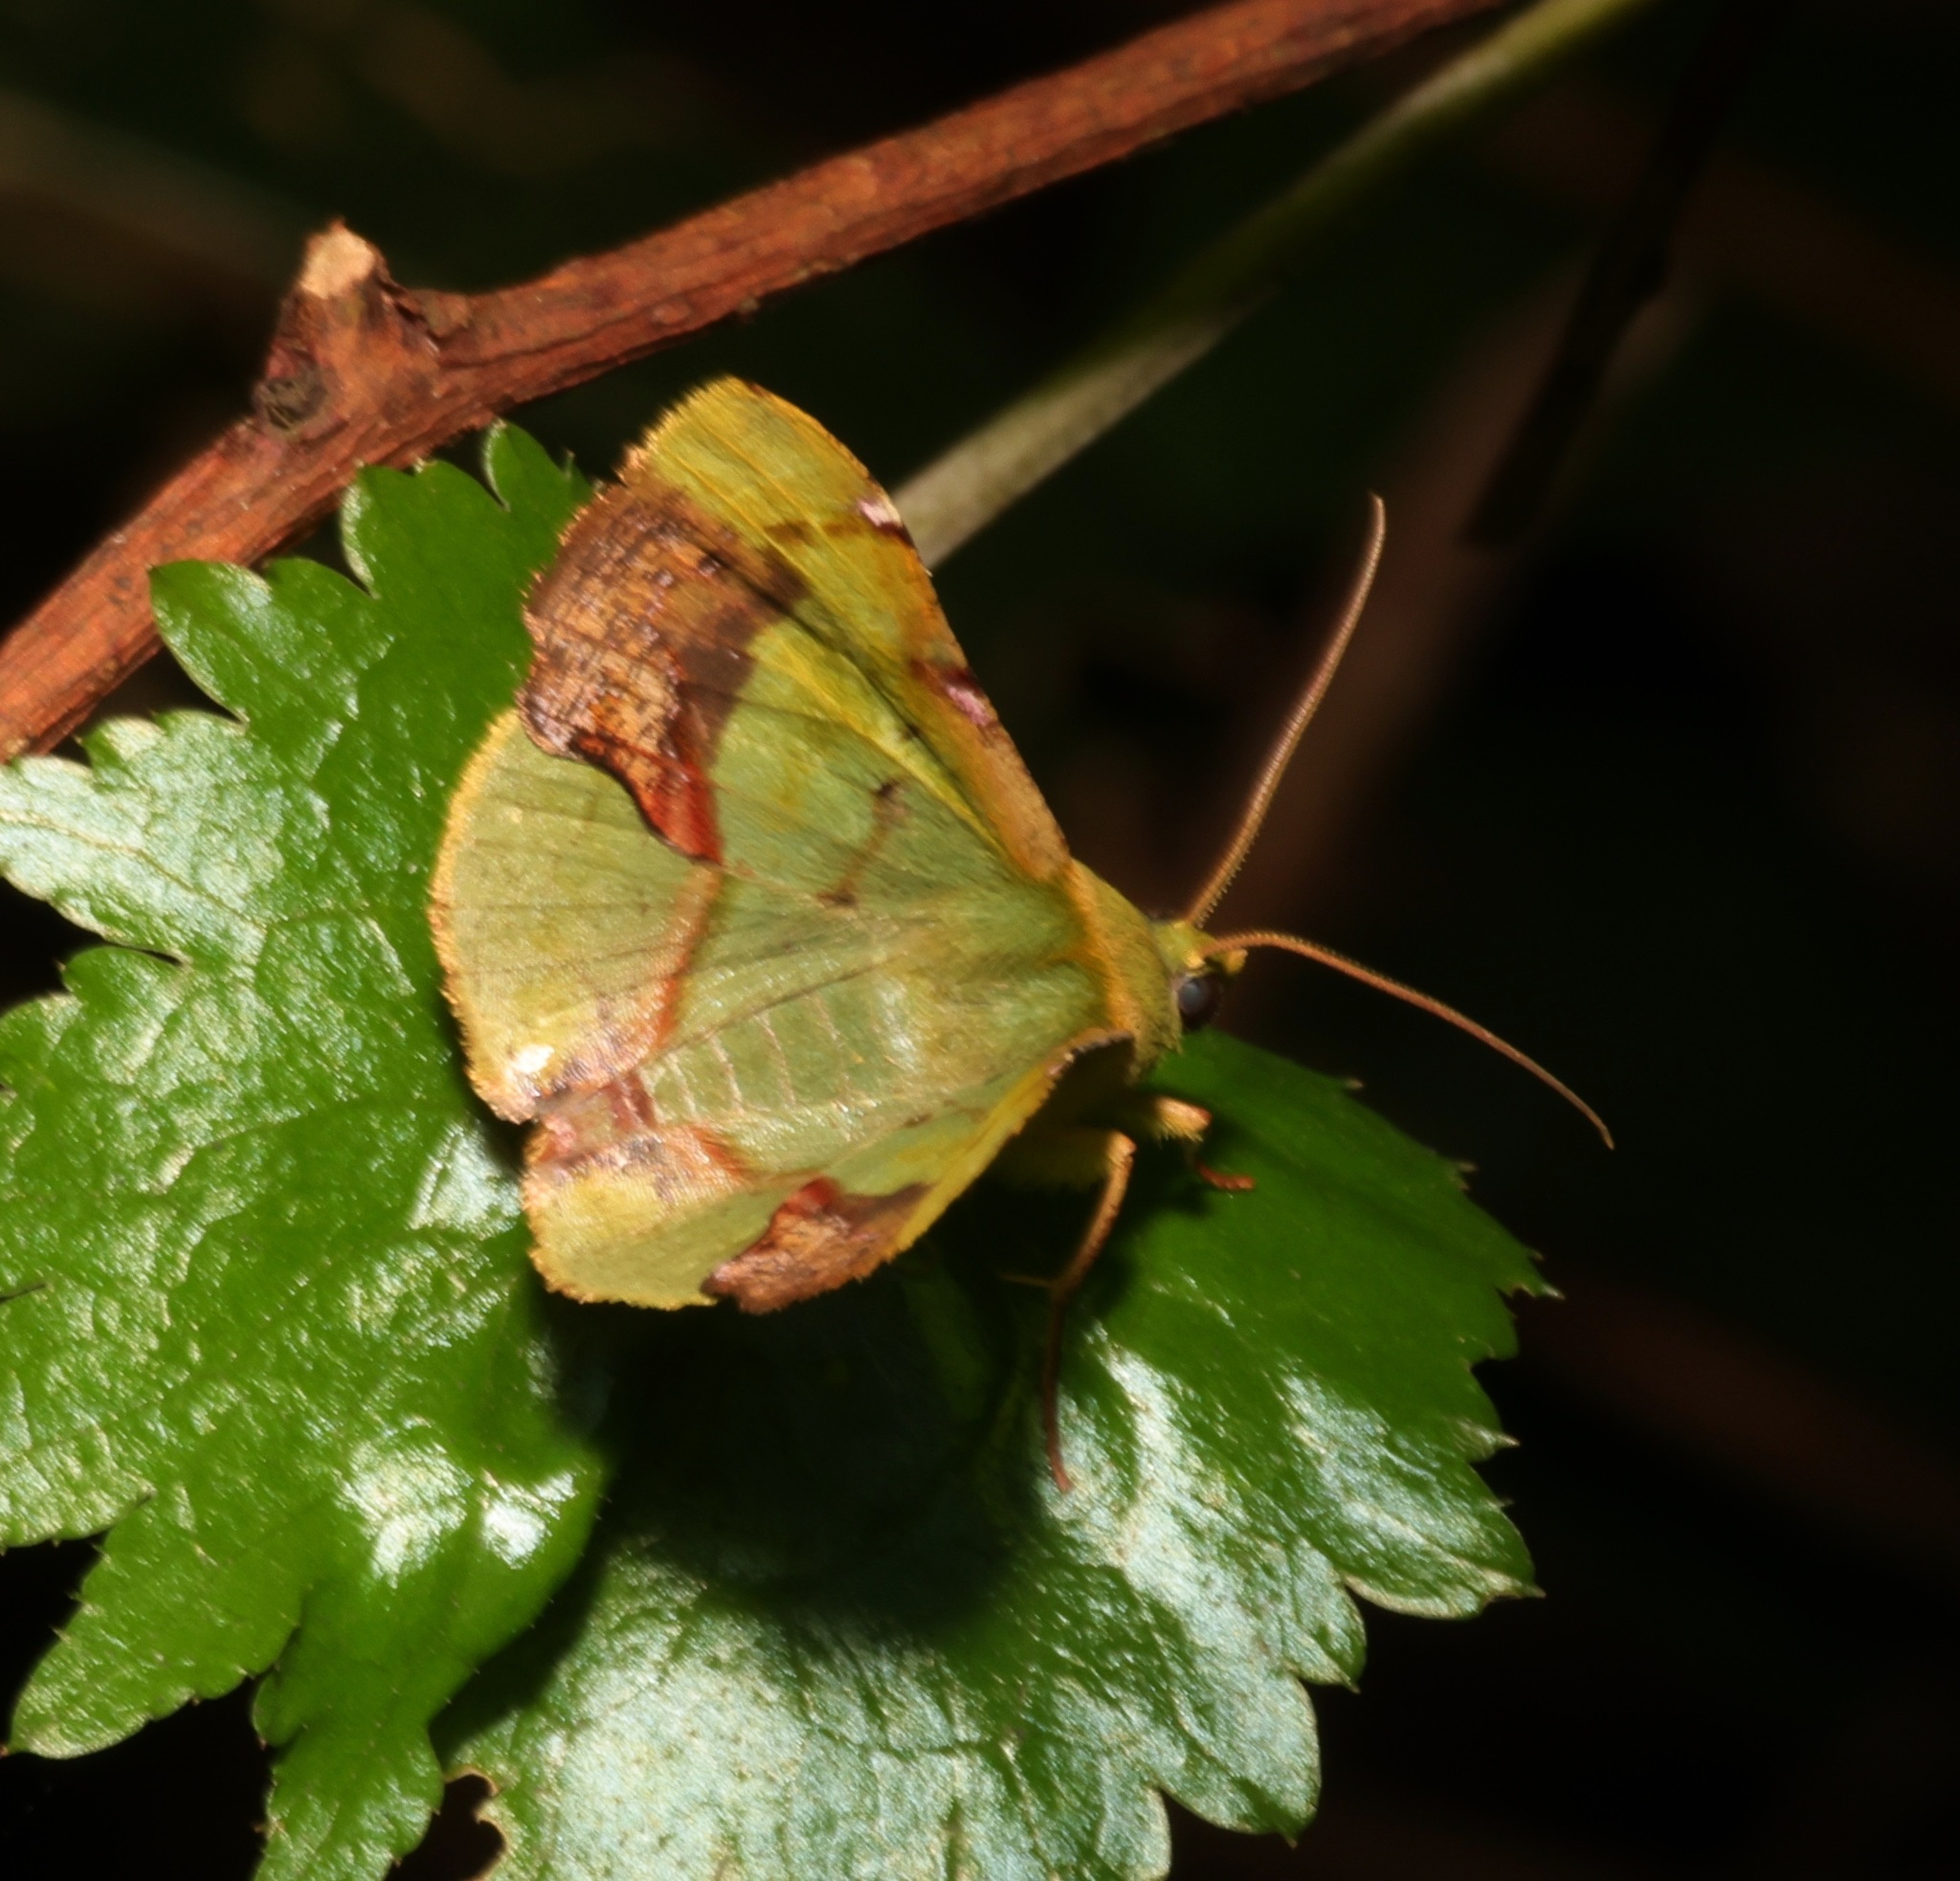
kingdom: Animalia
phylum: Arthropoda
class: Insecta
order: Lepidoptera
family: Geometridae
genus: Fascellina
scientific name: Fascellina plagiata
